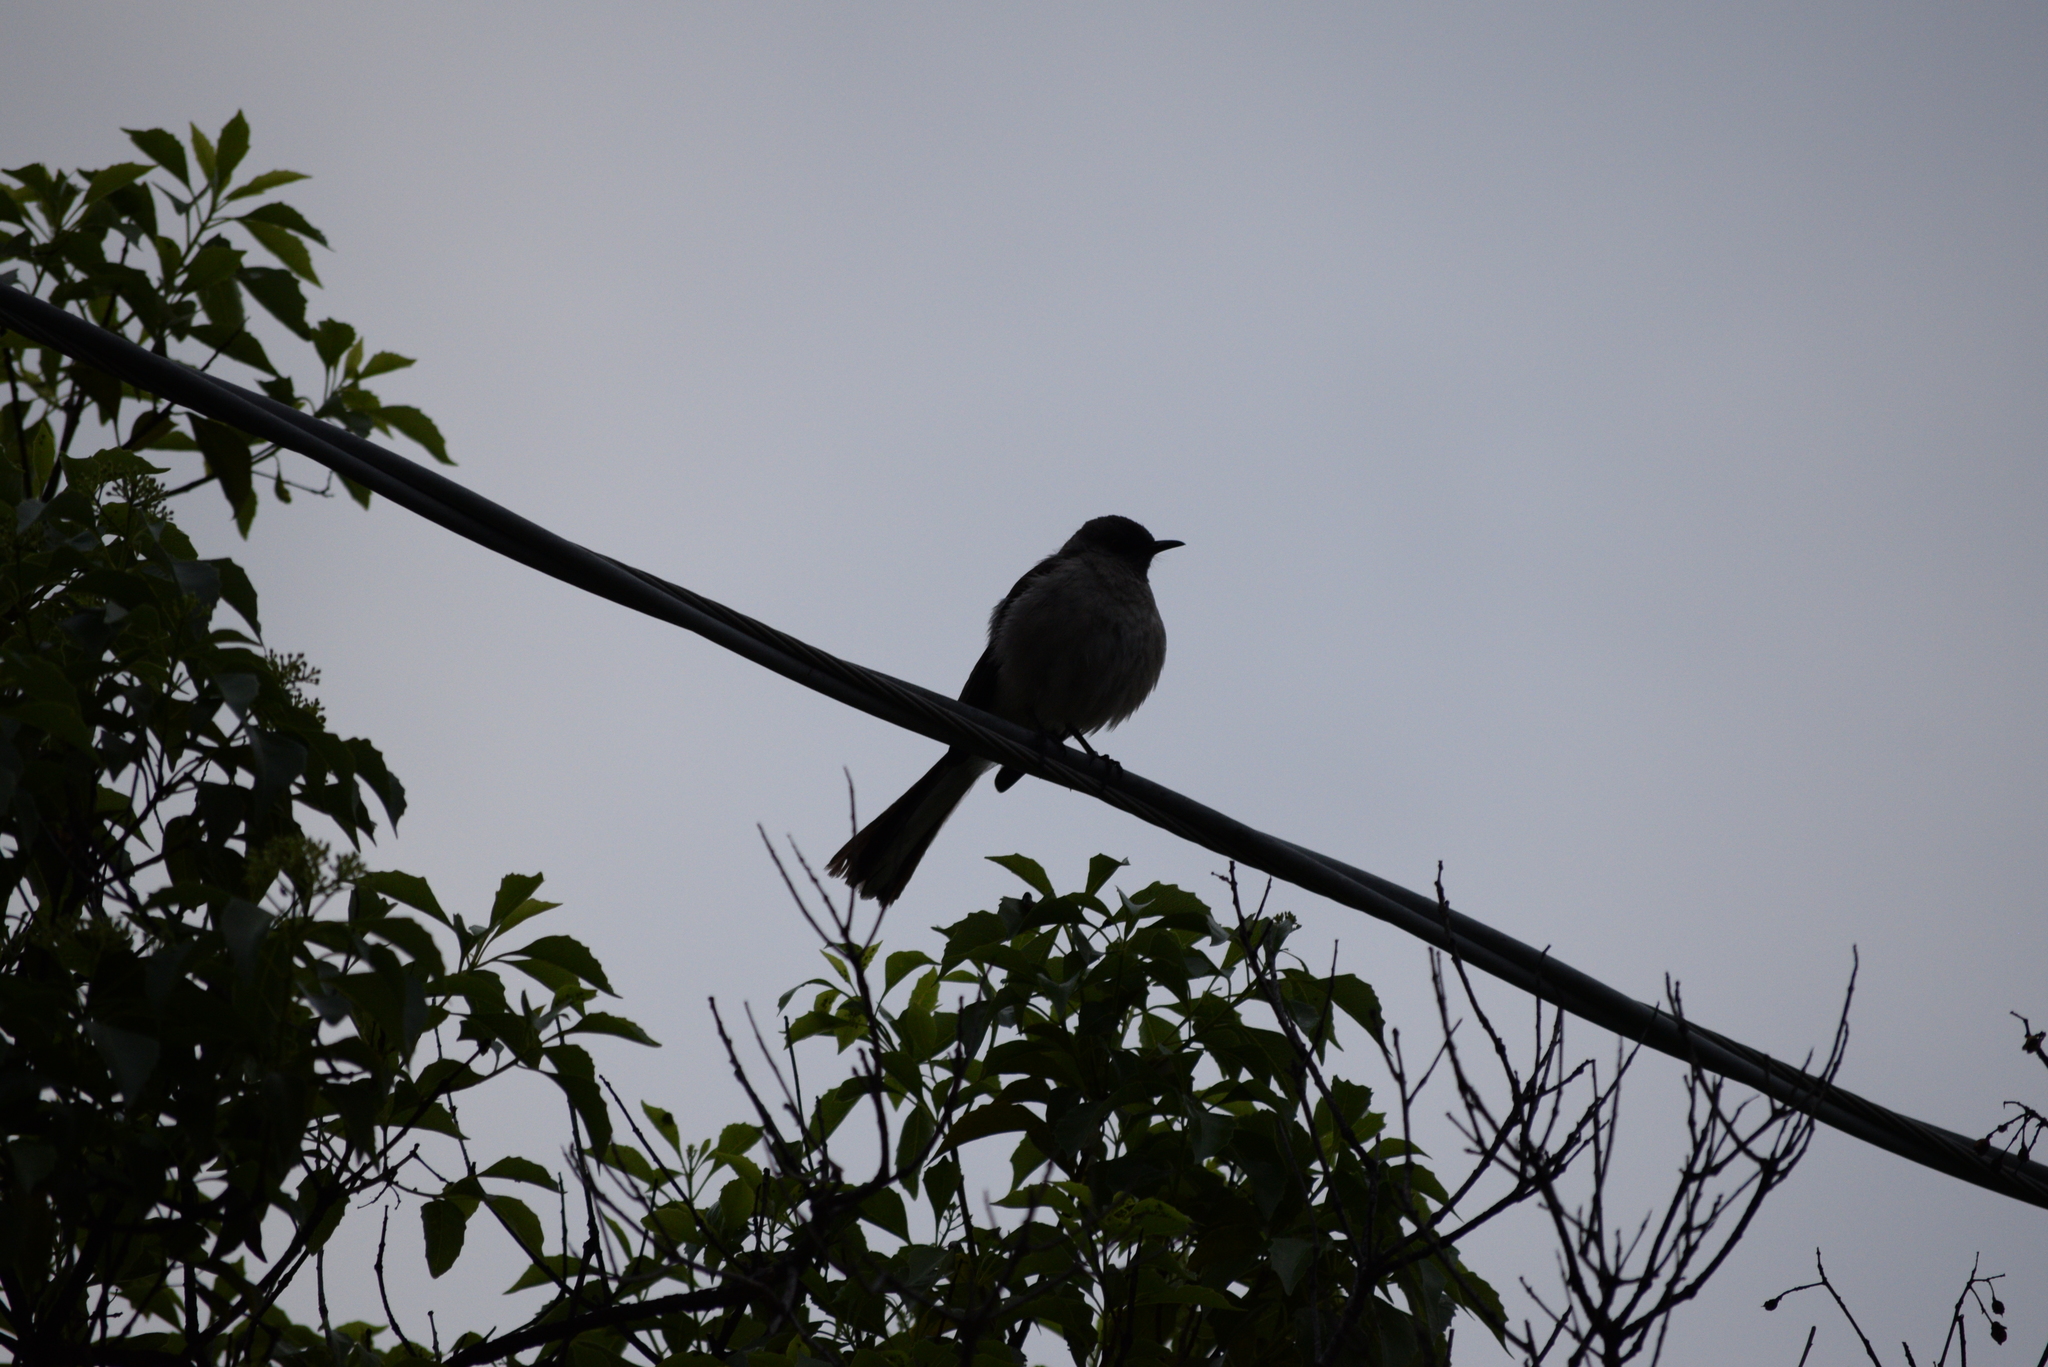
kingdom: Animalia
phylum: Chordata
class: Aves
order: Passeriformes
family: Mimidae
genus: Mimus
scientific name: Mimus polyglottos
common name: Northern mockingbird
